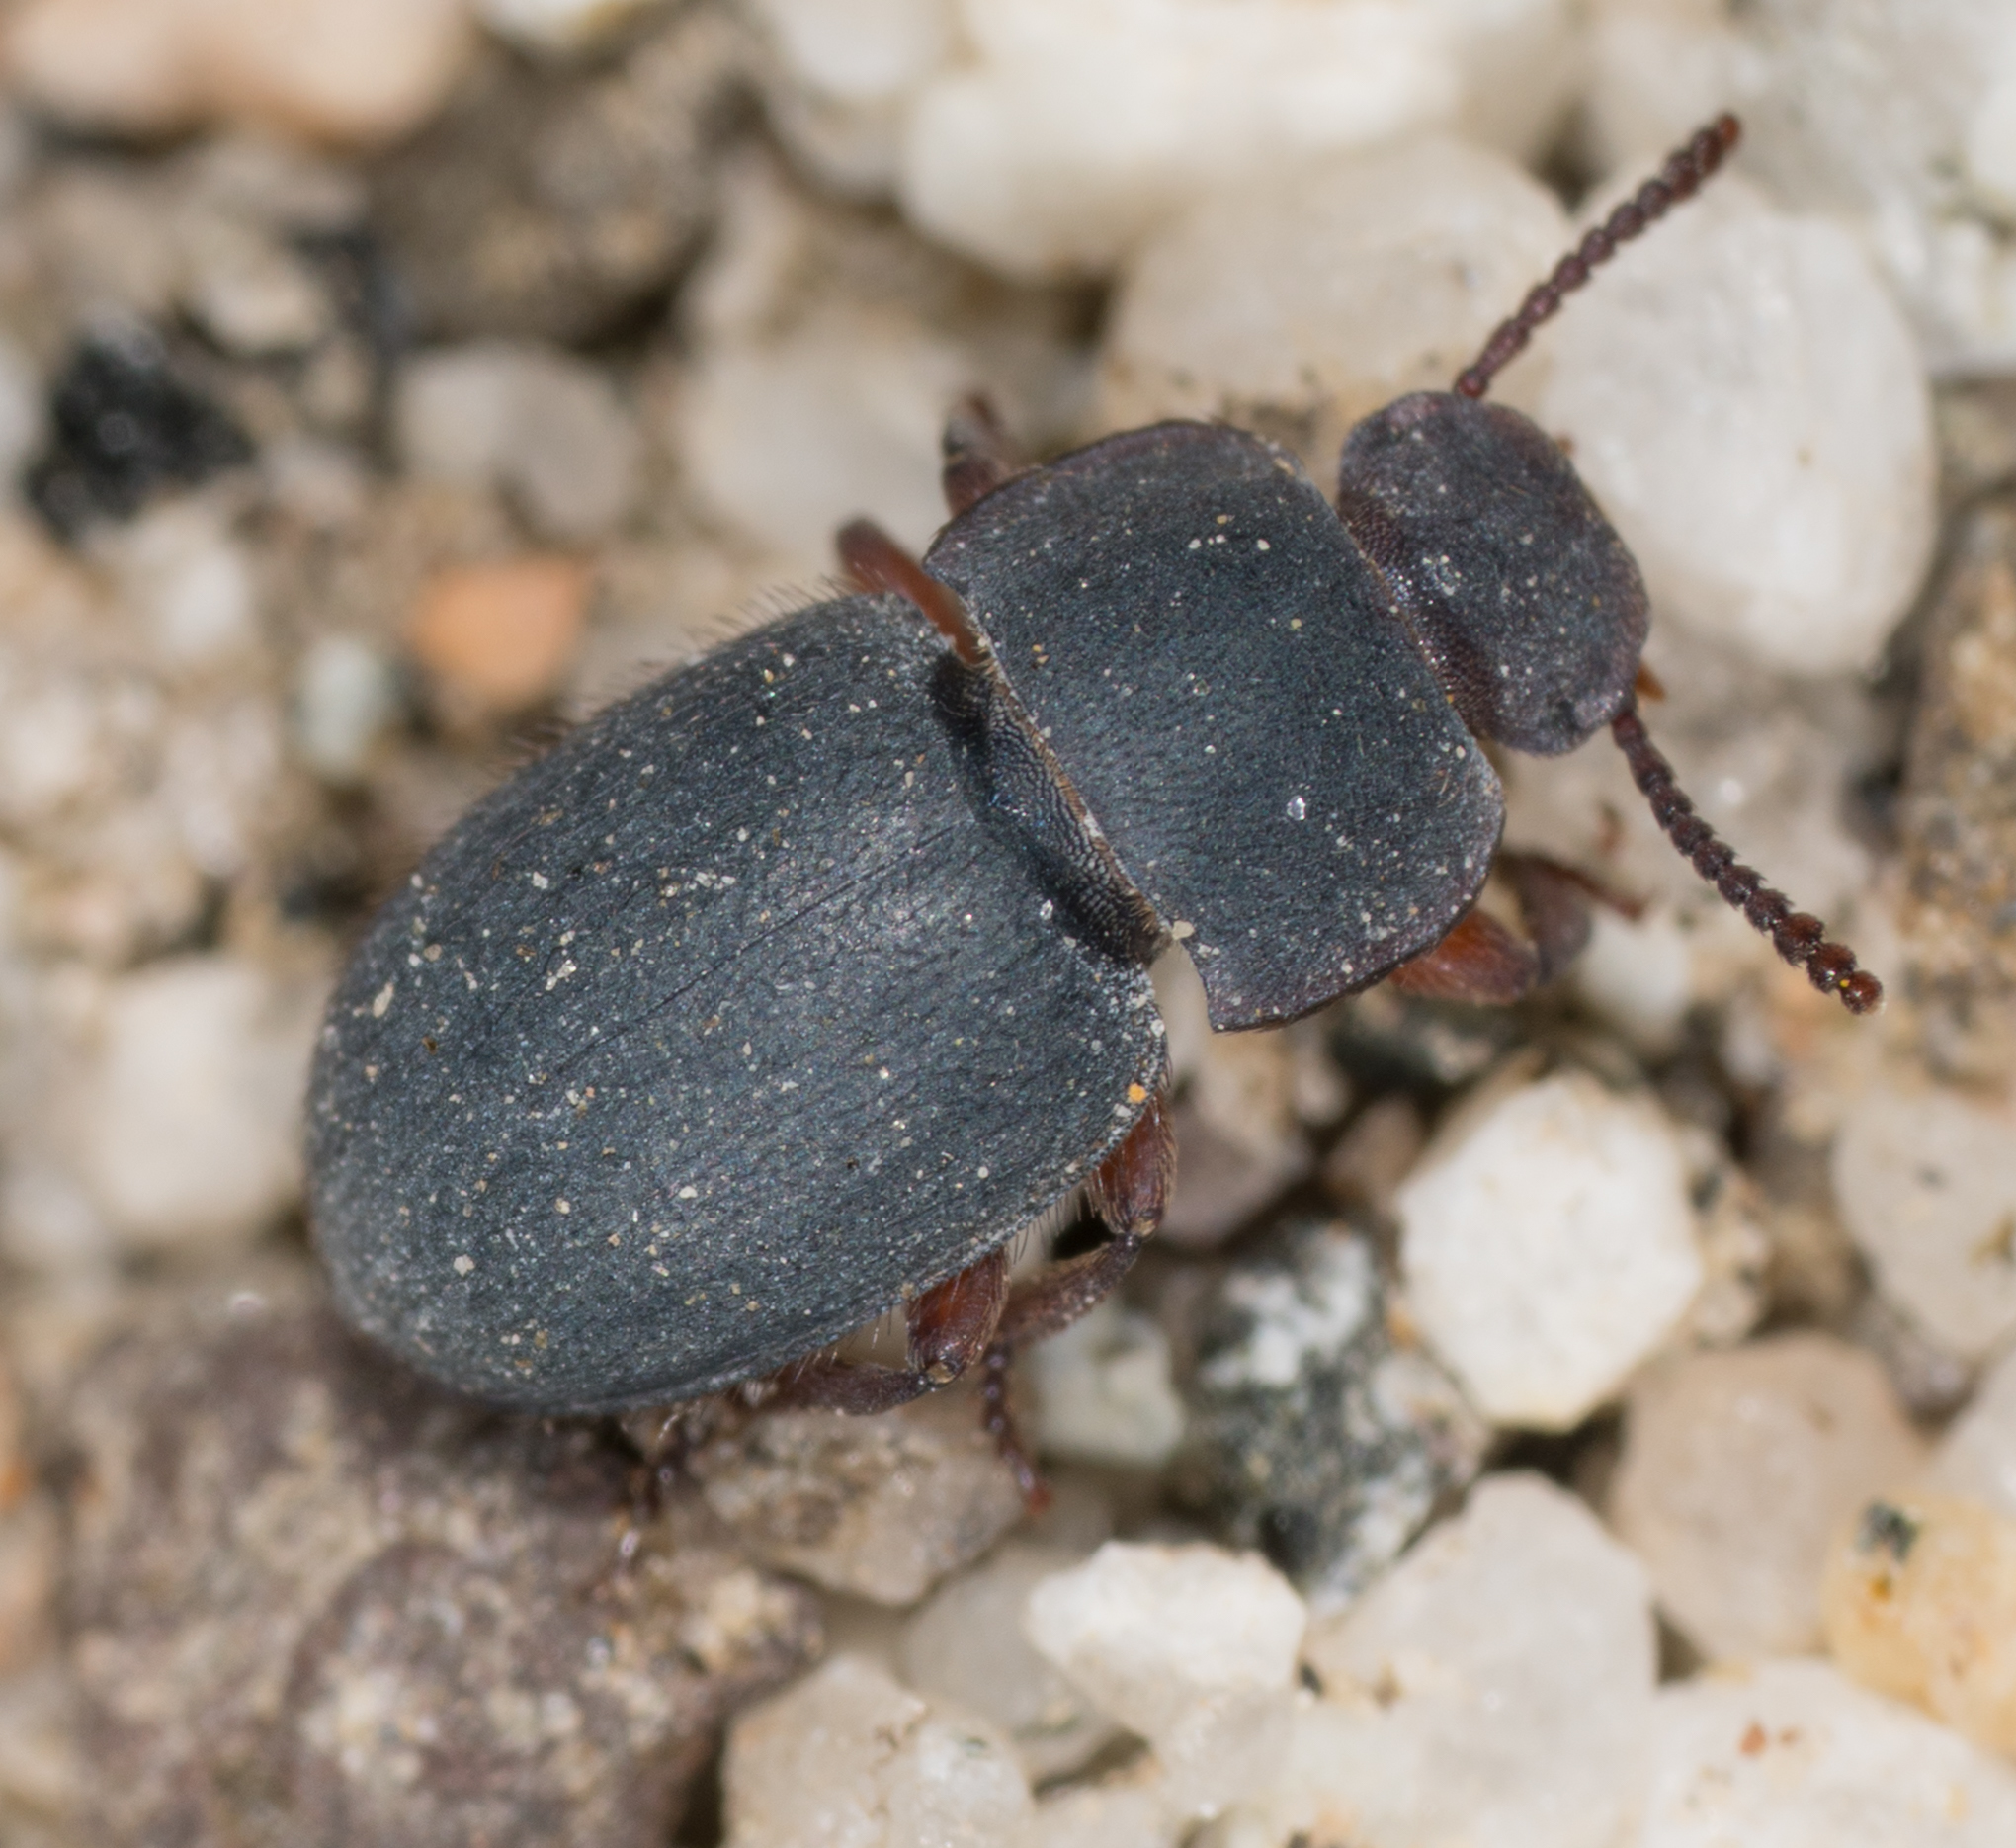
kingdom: Animalia
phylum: Arthropoda
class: Insecta
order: Coleoptera
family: Tenebrionidae
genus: Notibius
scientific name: Notibius puberulus
